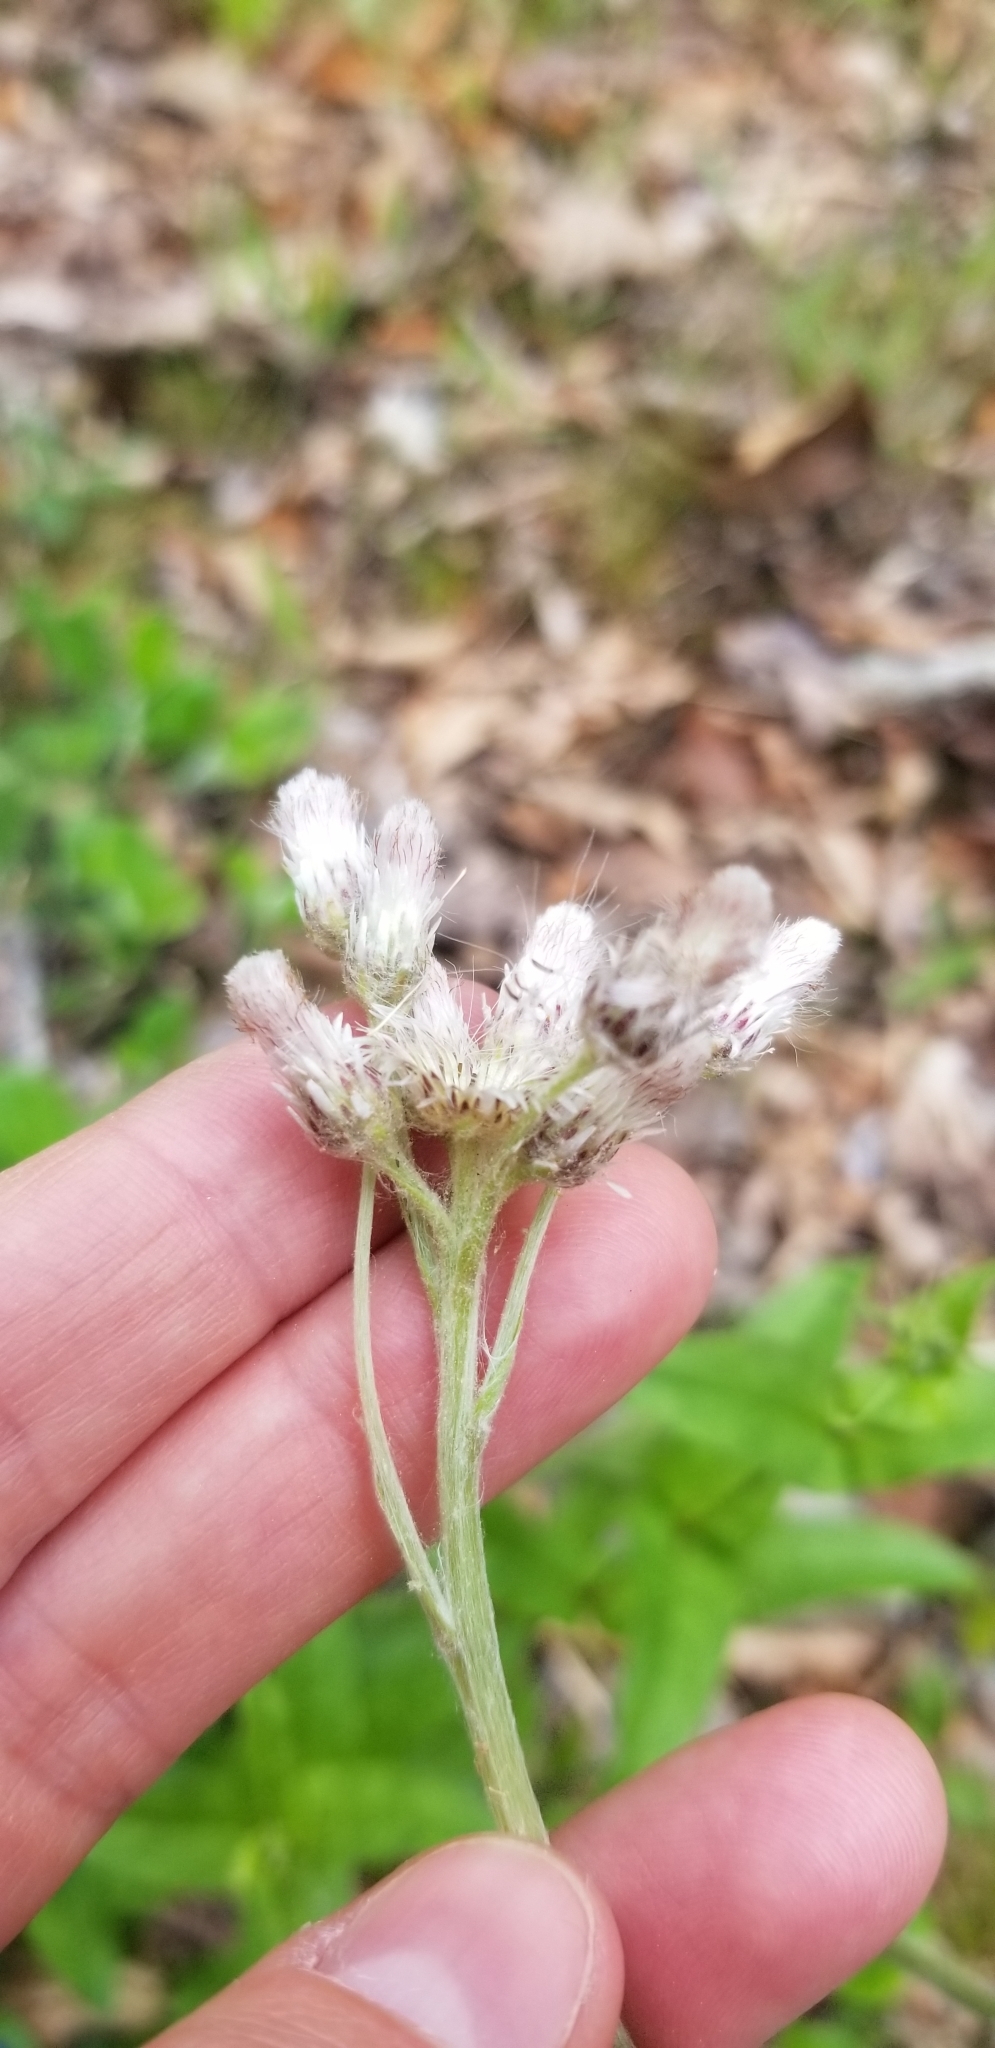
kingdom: Plantae
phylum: Tracheophyta
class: Magnoliopsida
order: Asterales
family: Asteraceae
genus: Antennaria
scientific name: Antennaria parlinii
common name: Parlin's pussytoes
